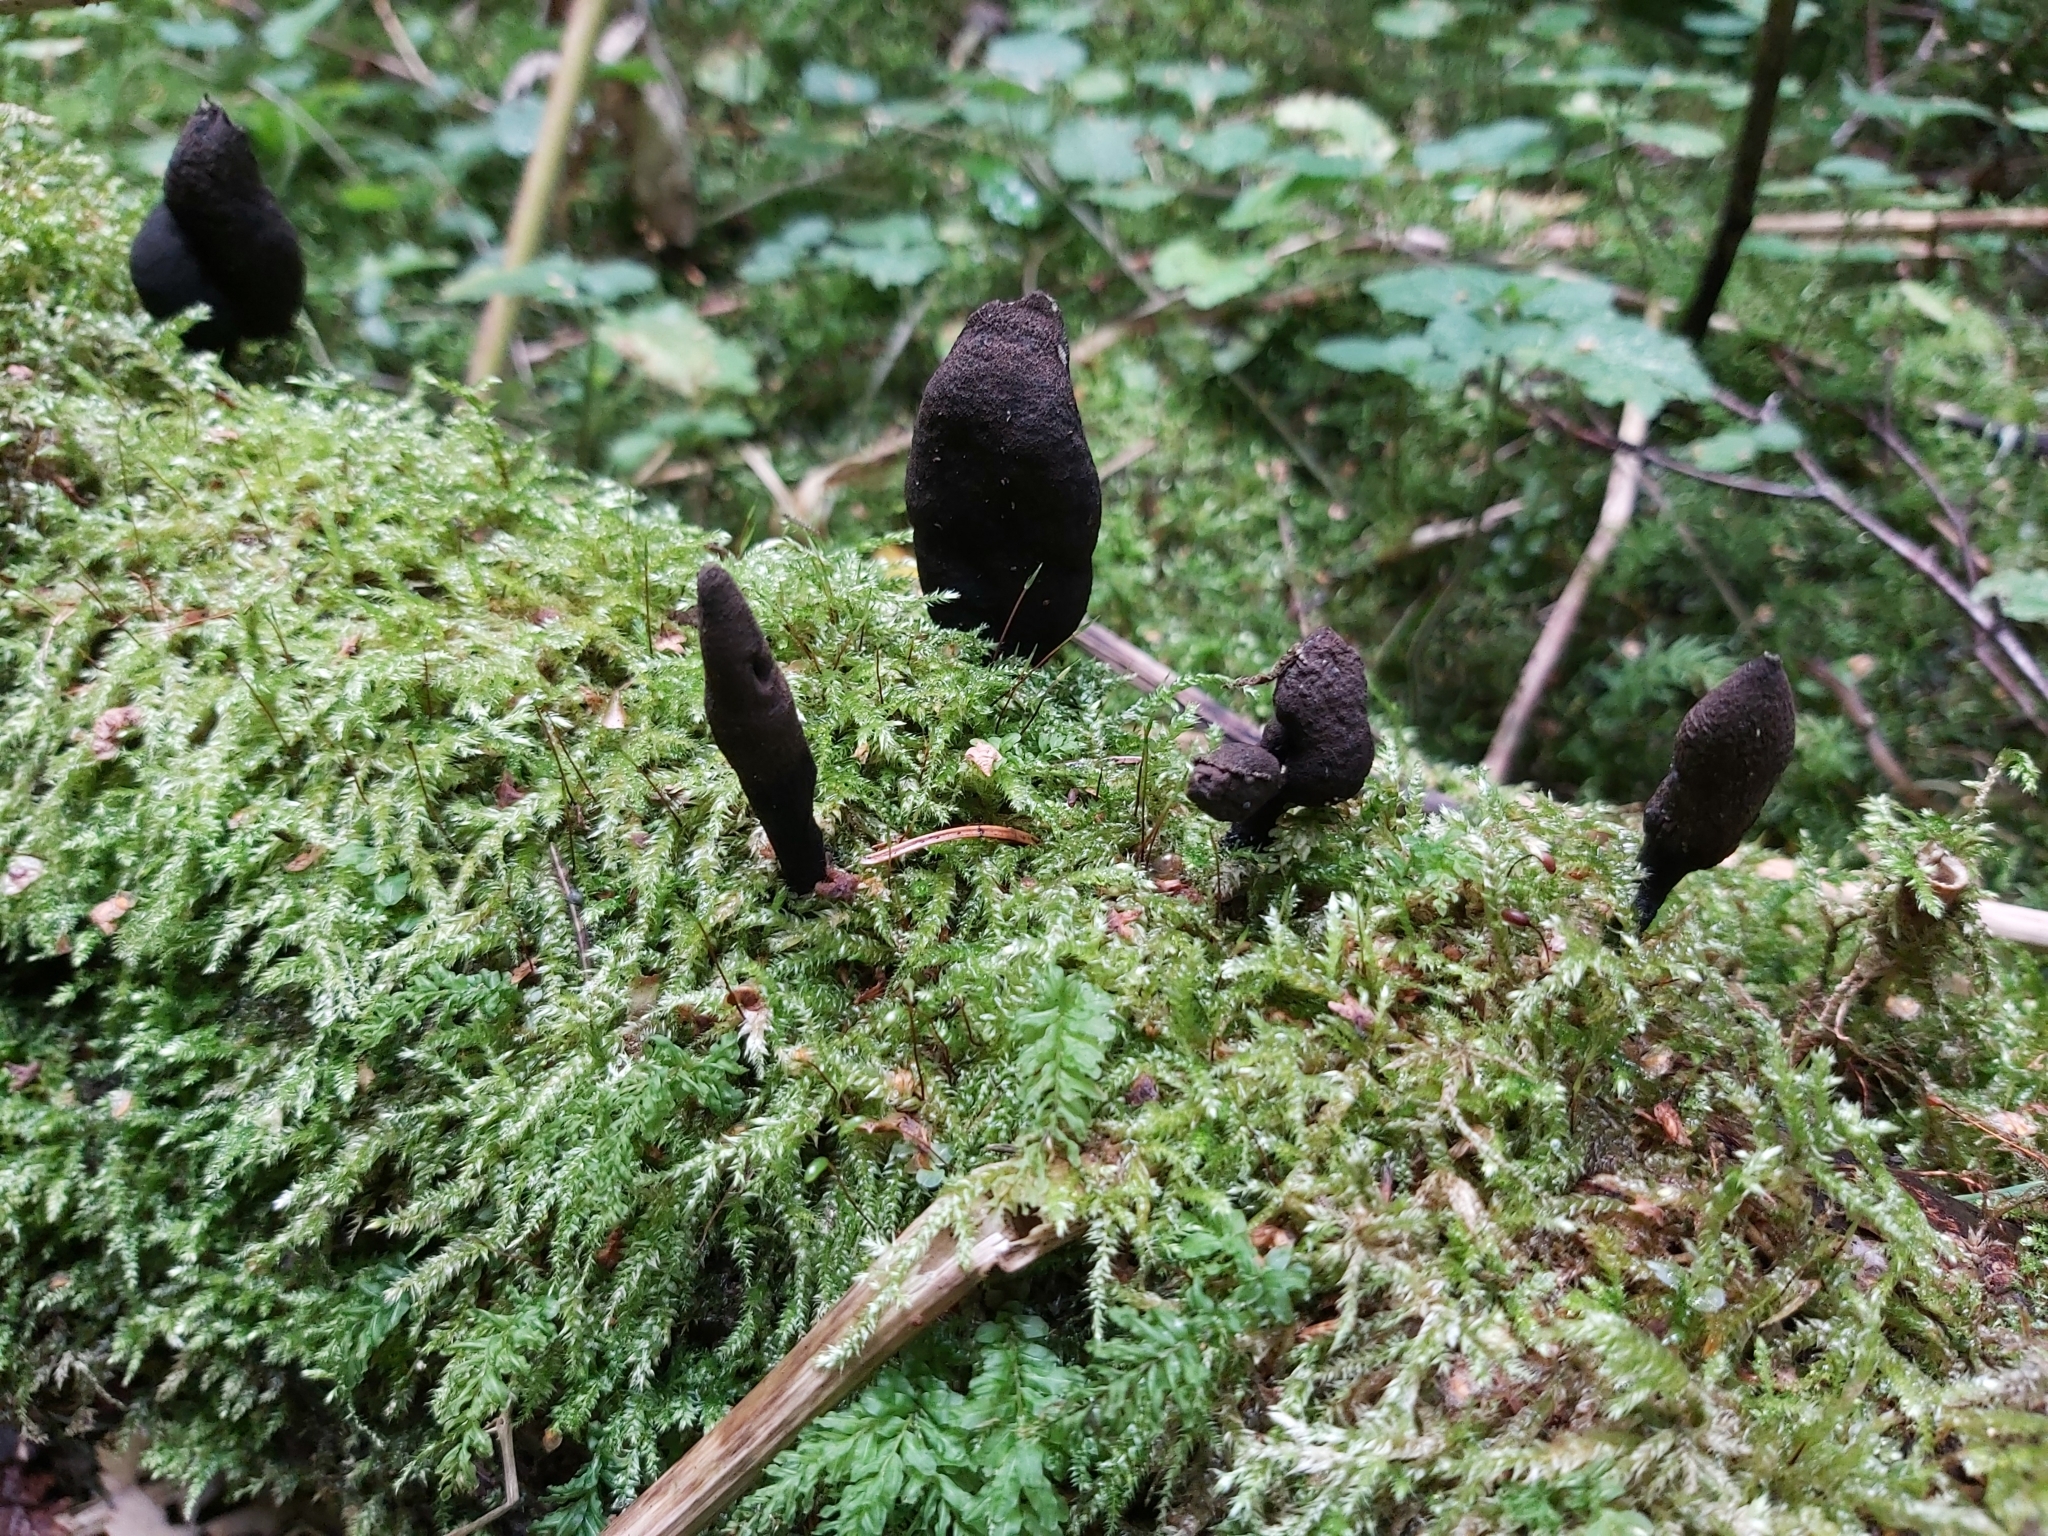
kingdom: Fungi
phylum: Ascomycota
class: Sordariomycetes
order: Xylariales
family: Xylariaceae
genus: Xylaria
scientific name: Xylaria polymorpha
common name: Dead man's fingers
